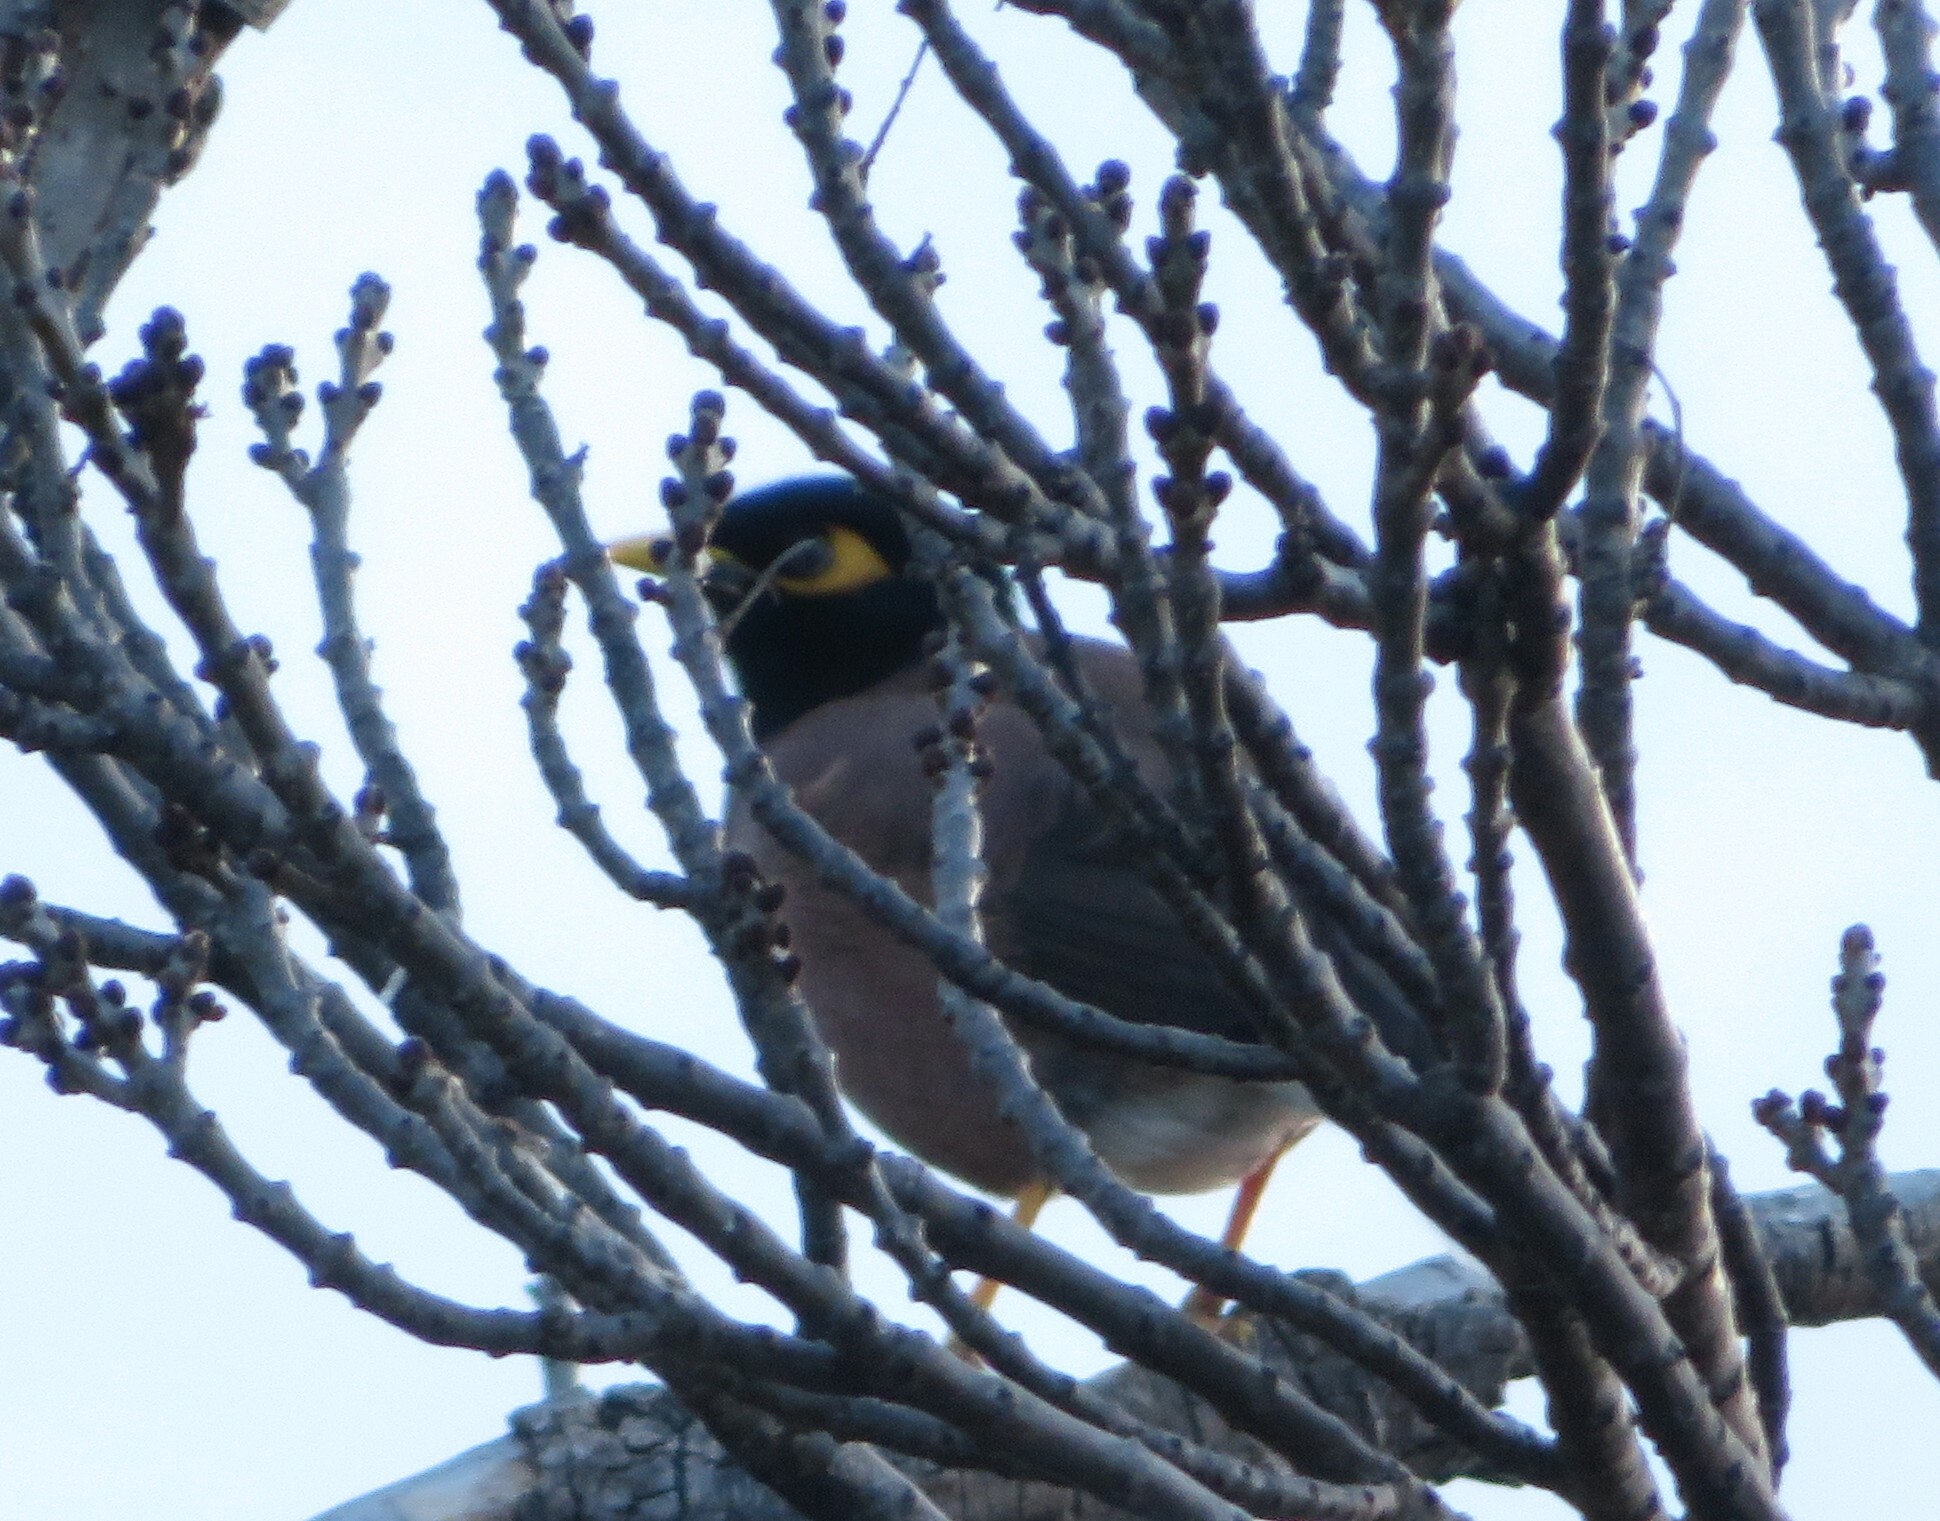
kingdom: Animalia
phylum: Chordata
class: Aves
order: Passeriformes
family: Sturnidae
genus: Acridotheres
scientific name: Acridotheres tristis
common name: Common myna
